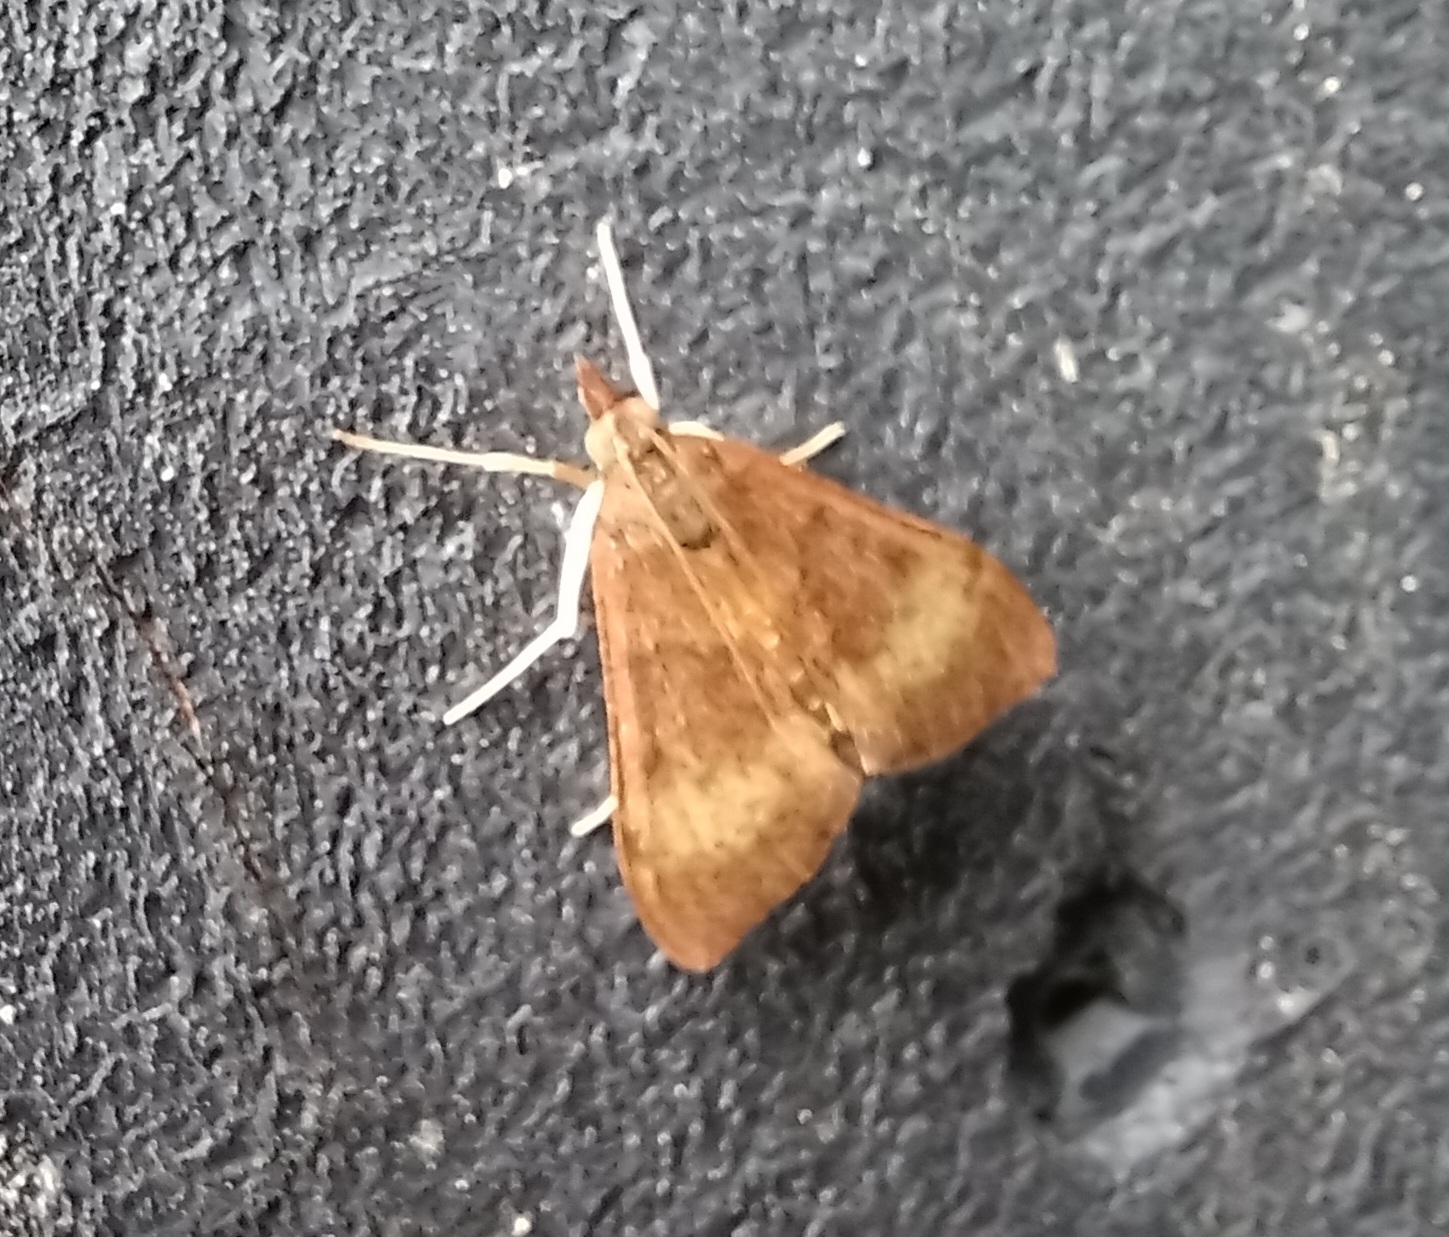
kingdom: Animalia
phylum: Arthropoda
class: Insecta
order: Lepidoptera
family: Crambidae
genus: Uresiphita
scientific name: Uresiphita
